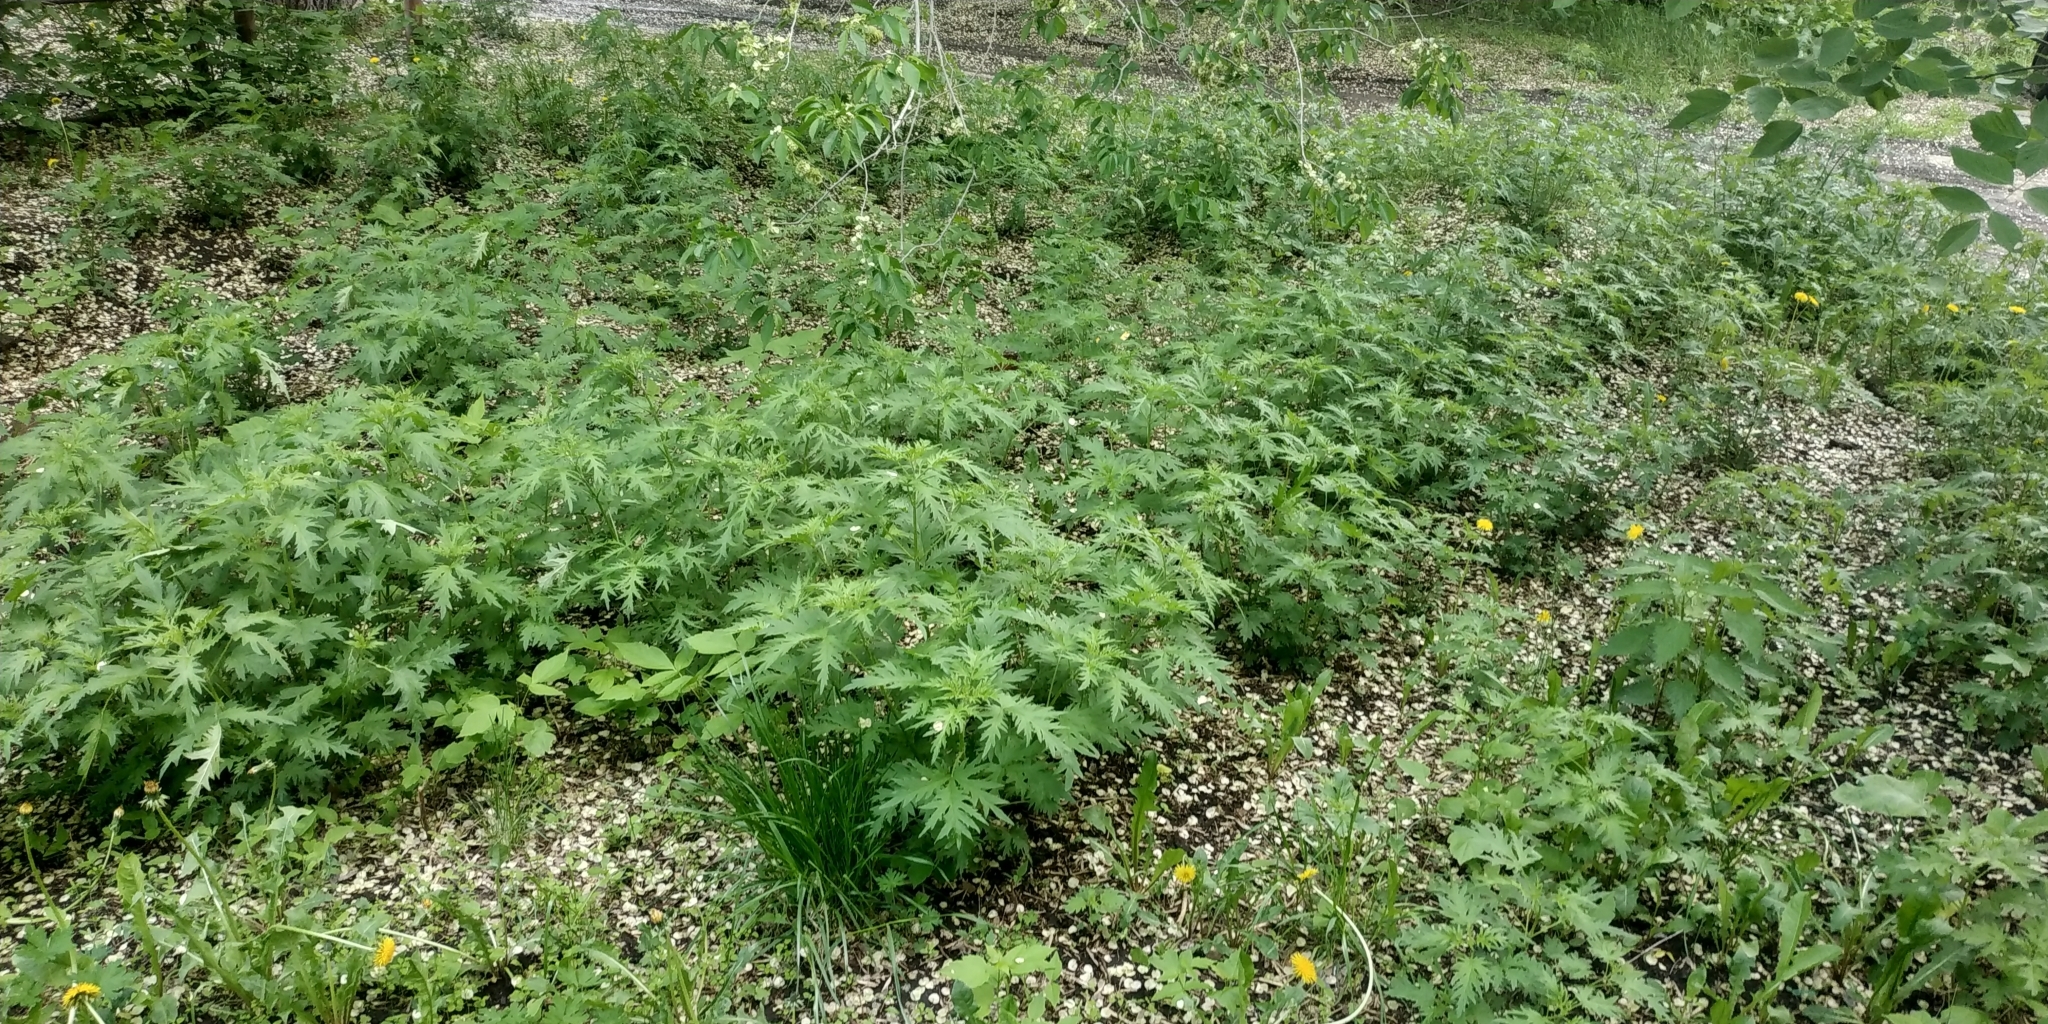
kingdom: Plantae
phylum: Tracheophyta
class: Magnoliopsida
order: Rosales
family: Urticaceae
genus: Urtica
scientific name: Urtica cannabina
